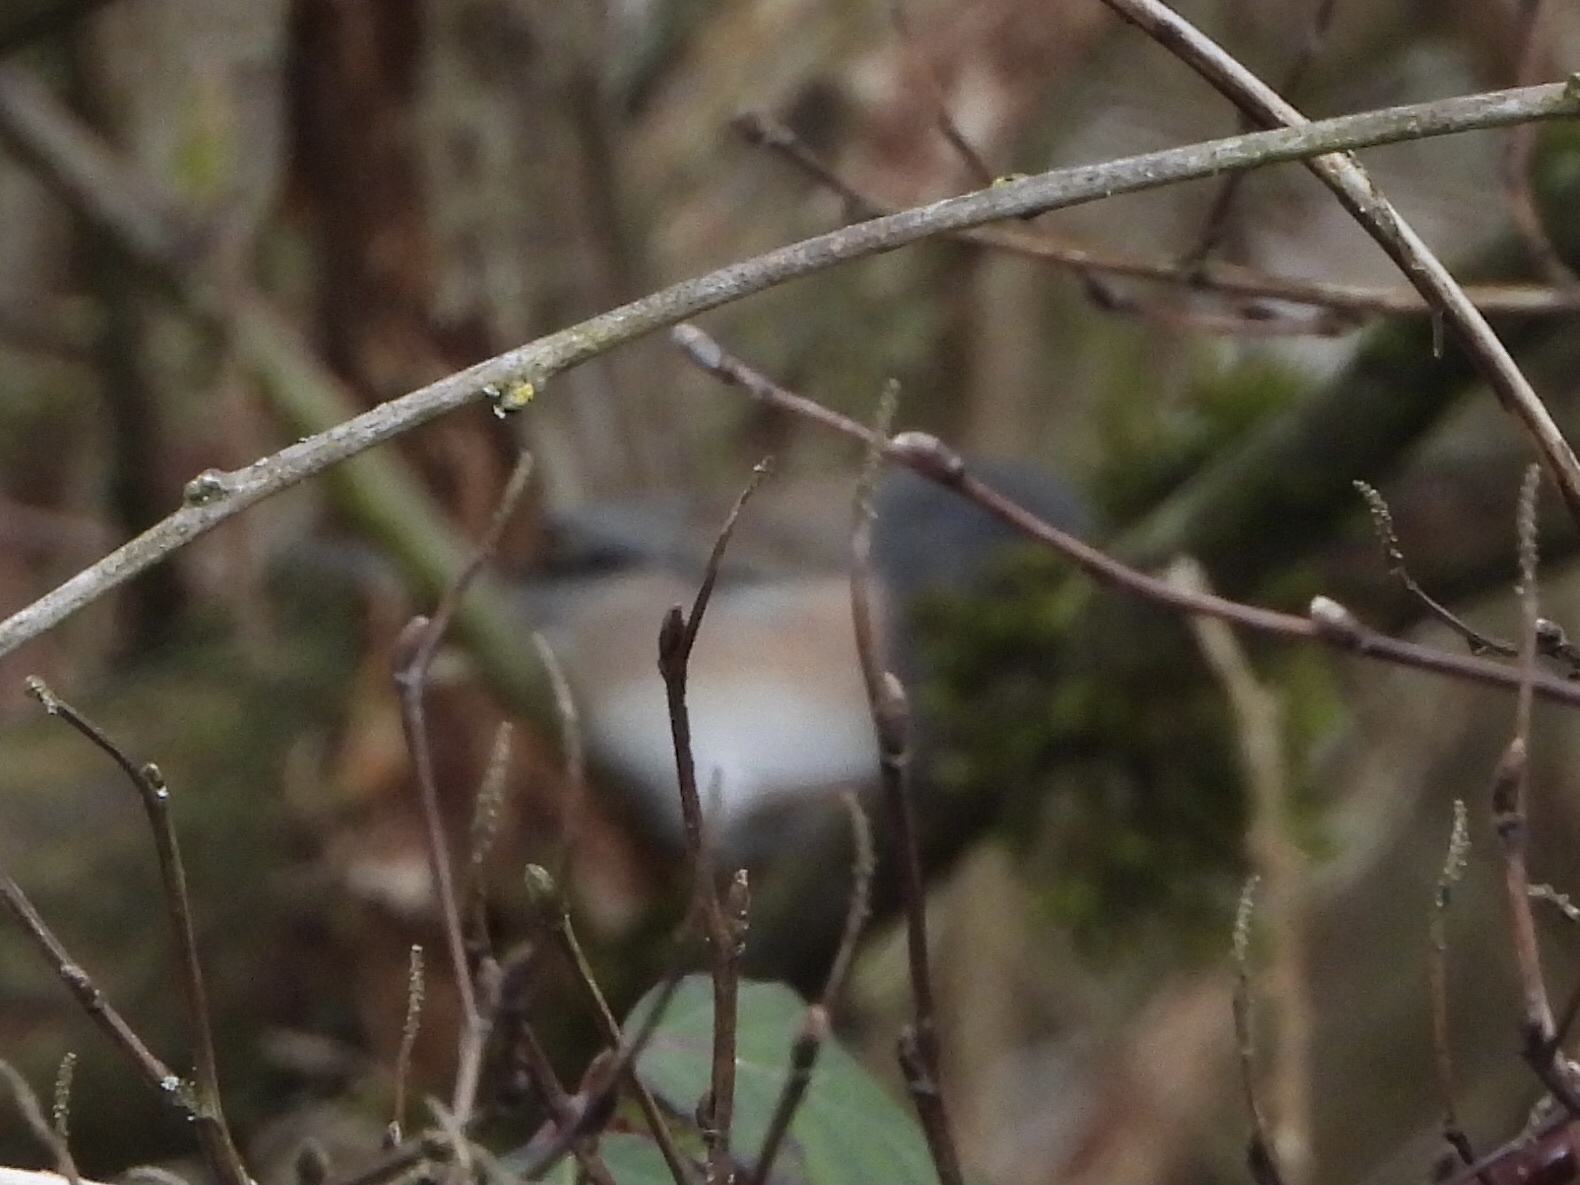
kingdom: Animalia
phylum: Chordata
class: Aves
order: Passeriformes
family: Passerellidae
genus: Junco
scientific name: Junco hyemalis
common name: Dark-eyed junco
